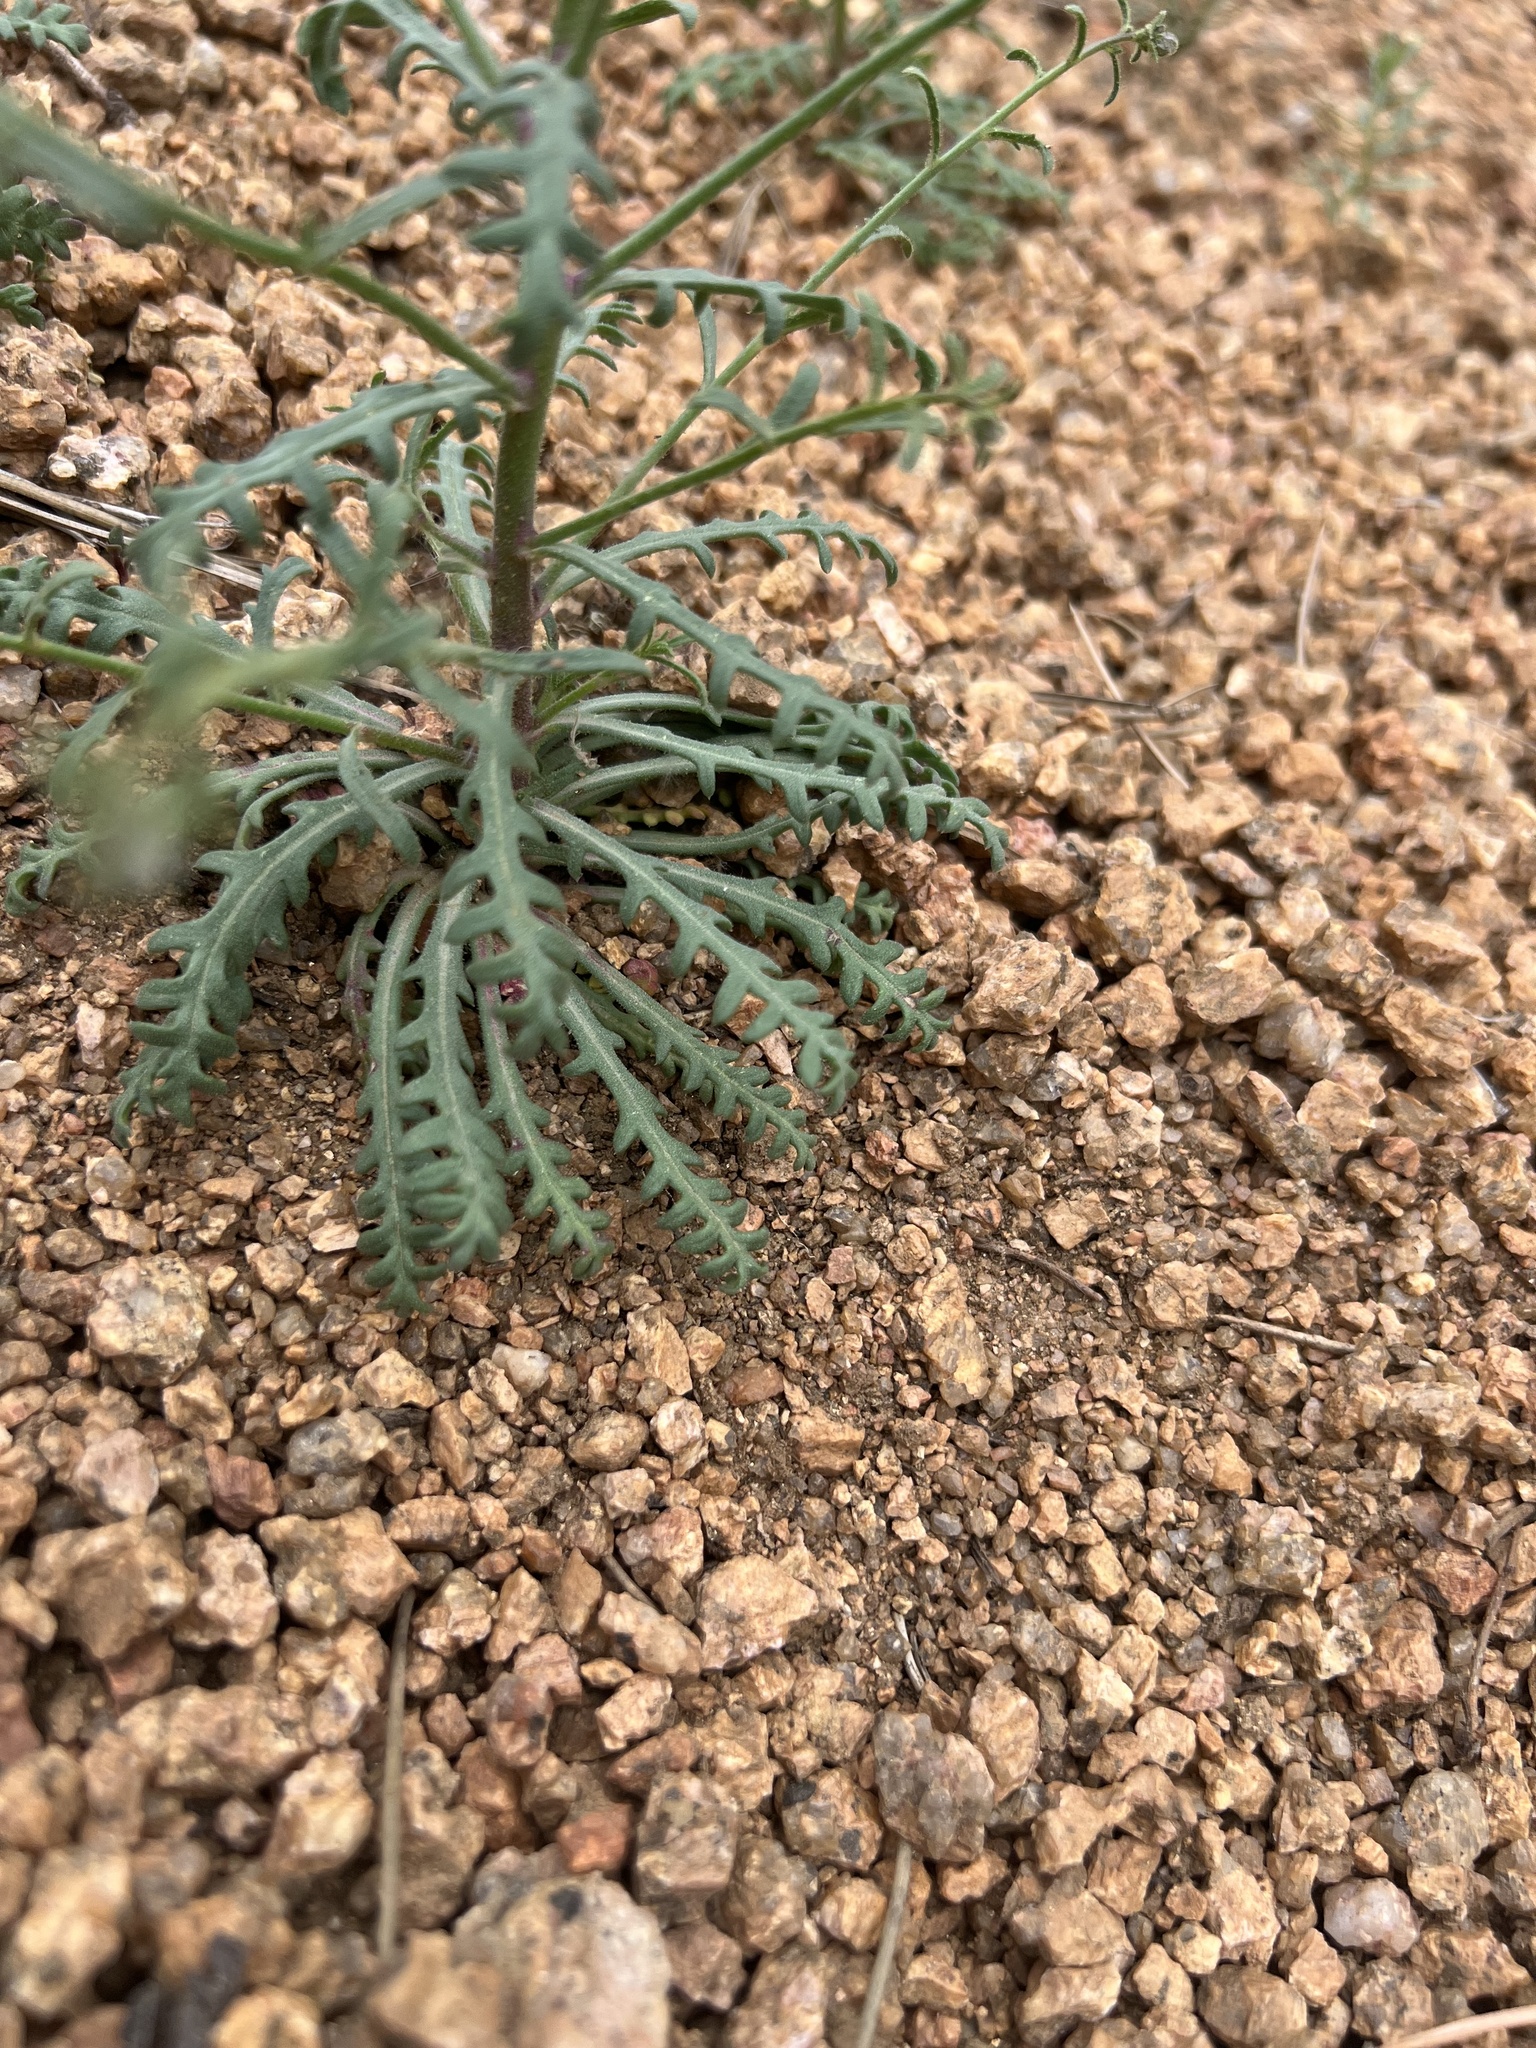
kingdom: Plantae
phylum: Tracheophyta
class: Magnoliopsida
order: Ericales
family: Polemoniaceae
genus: Aliciella
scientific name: Aliciella pinnatifida
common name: Sticky gilia
